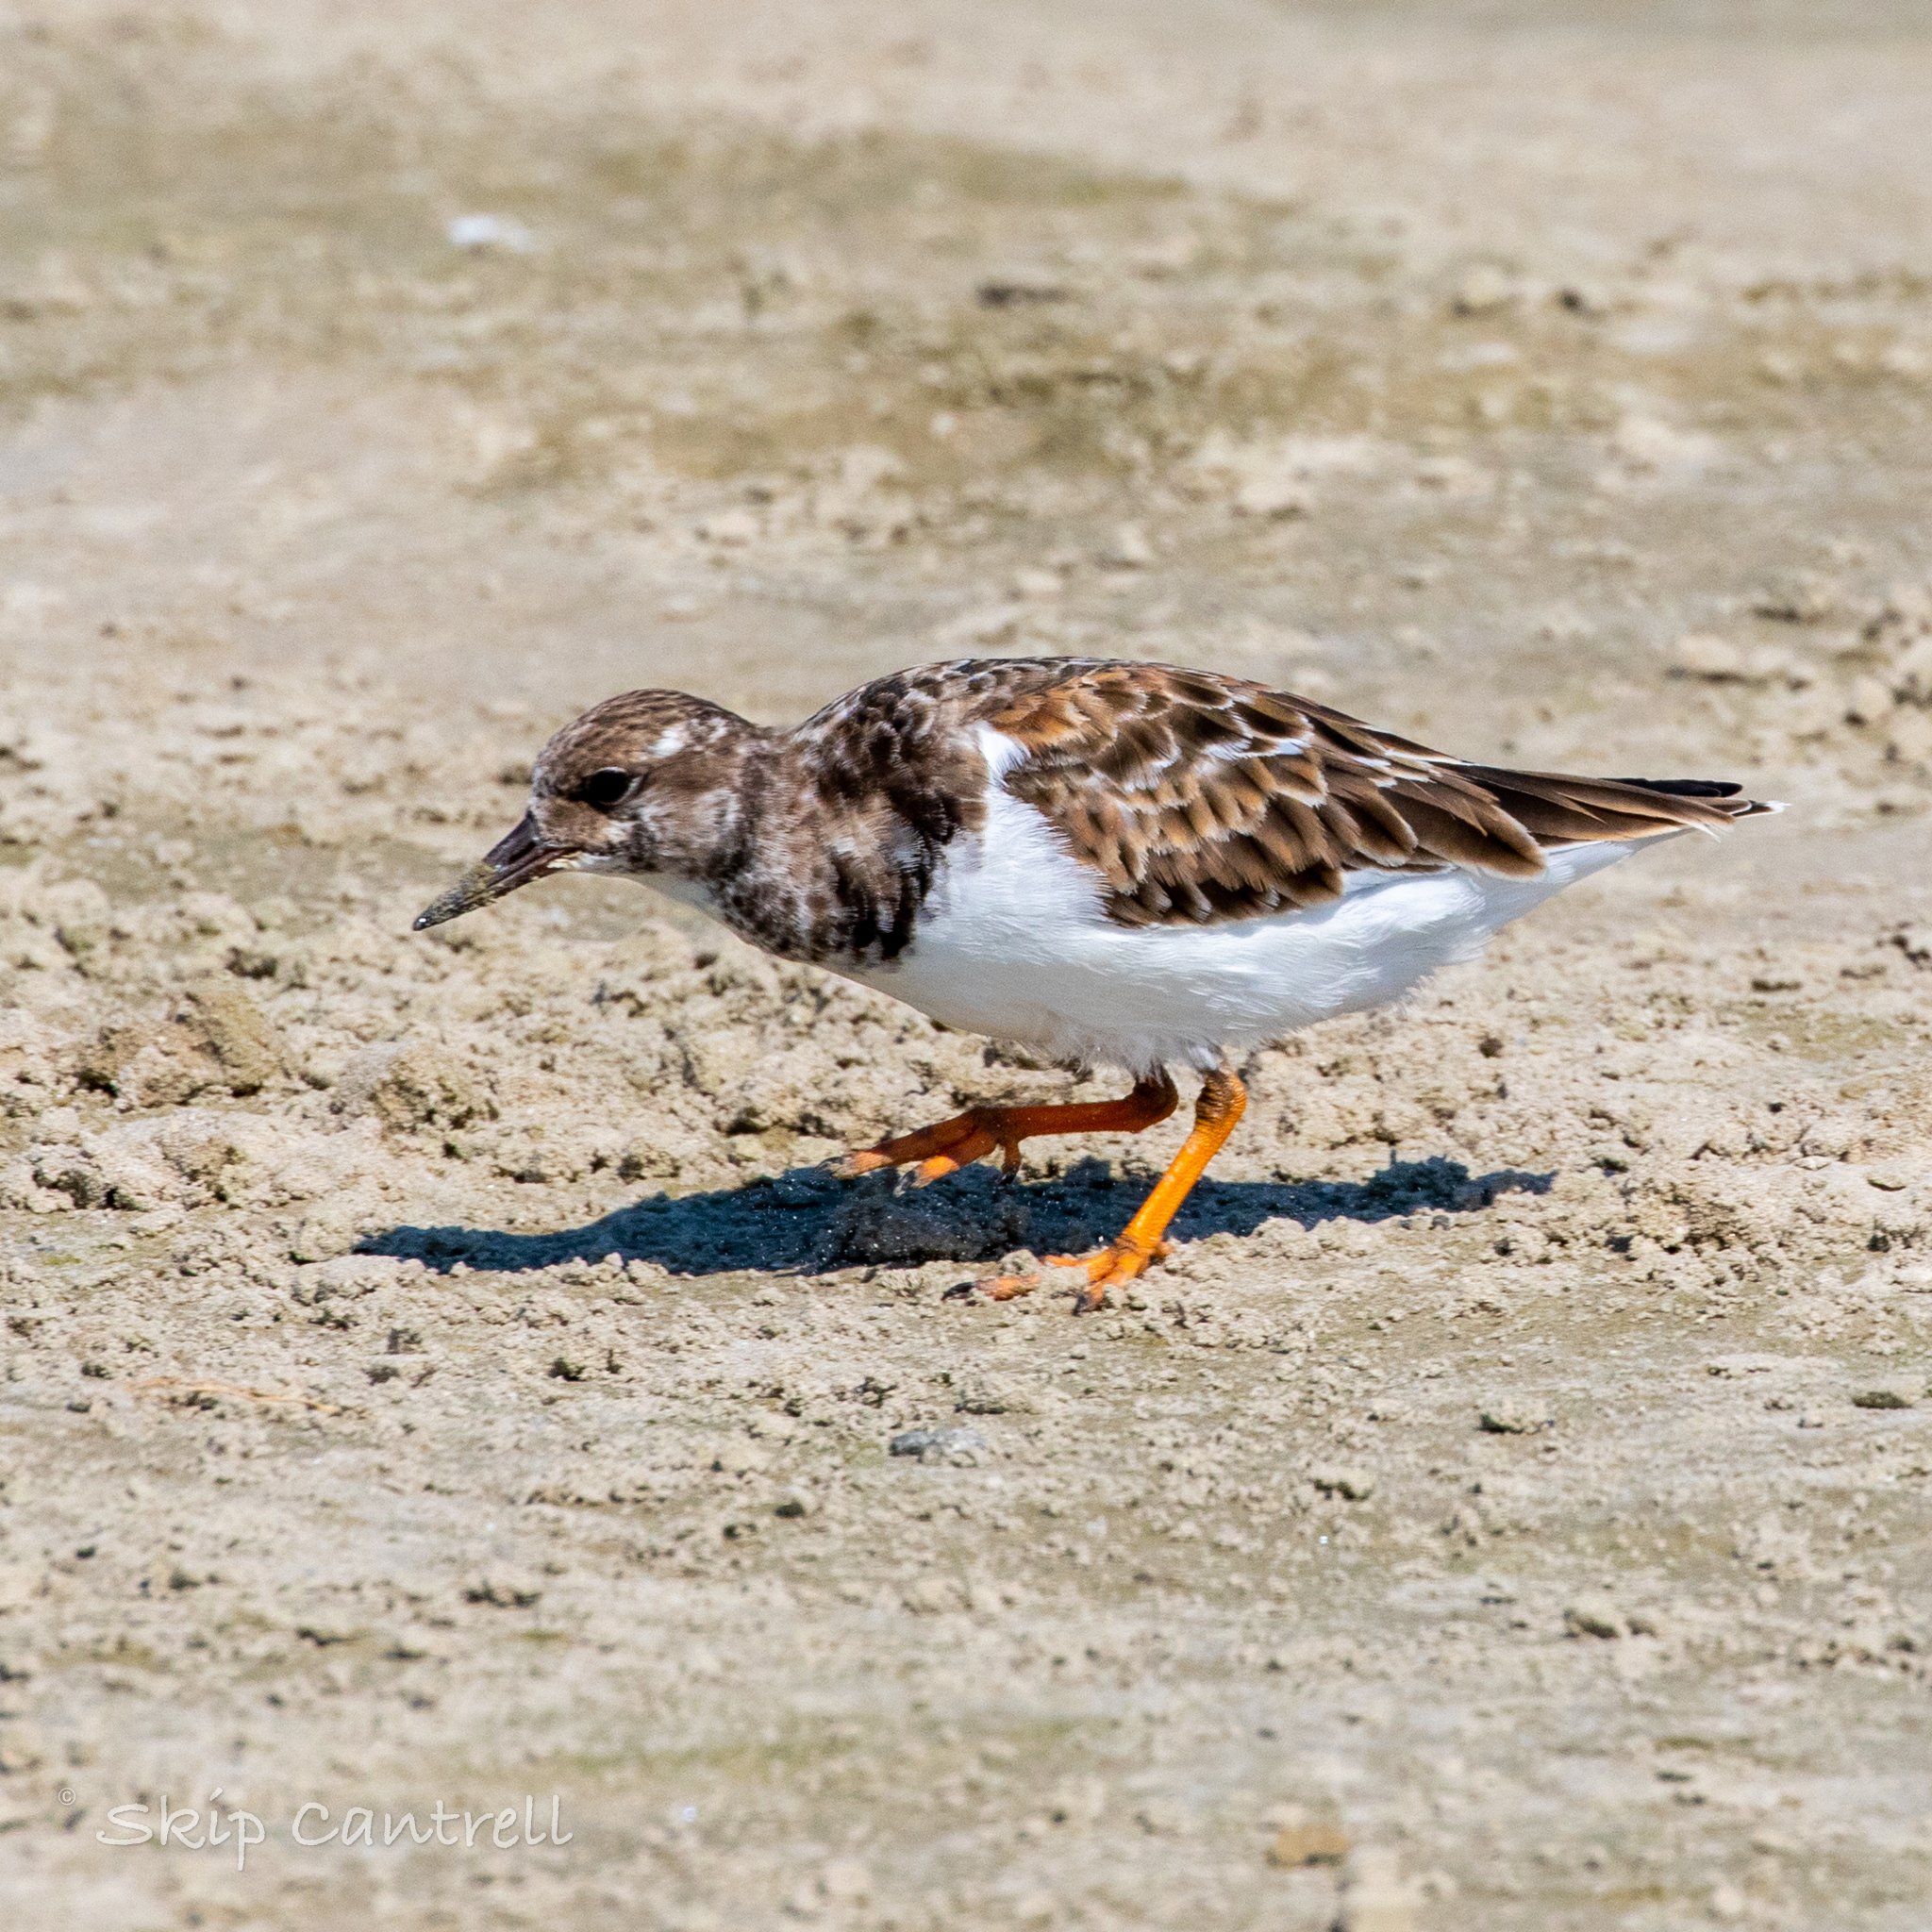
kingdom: Animalia
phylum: Chordata
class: Aves
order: Charadriiformes
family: Scolopacidae
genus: Arenaria
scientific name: Arenaria interpres
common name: Ruddy turnstone
